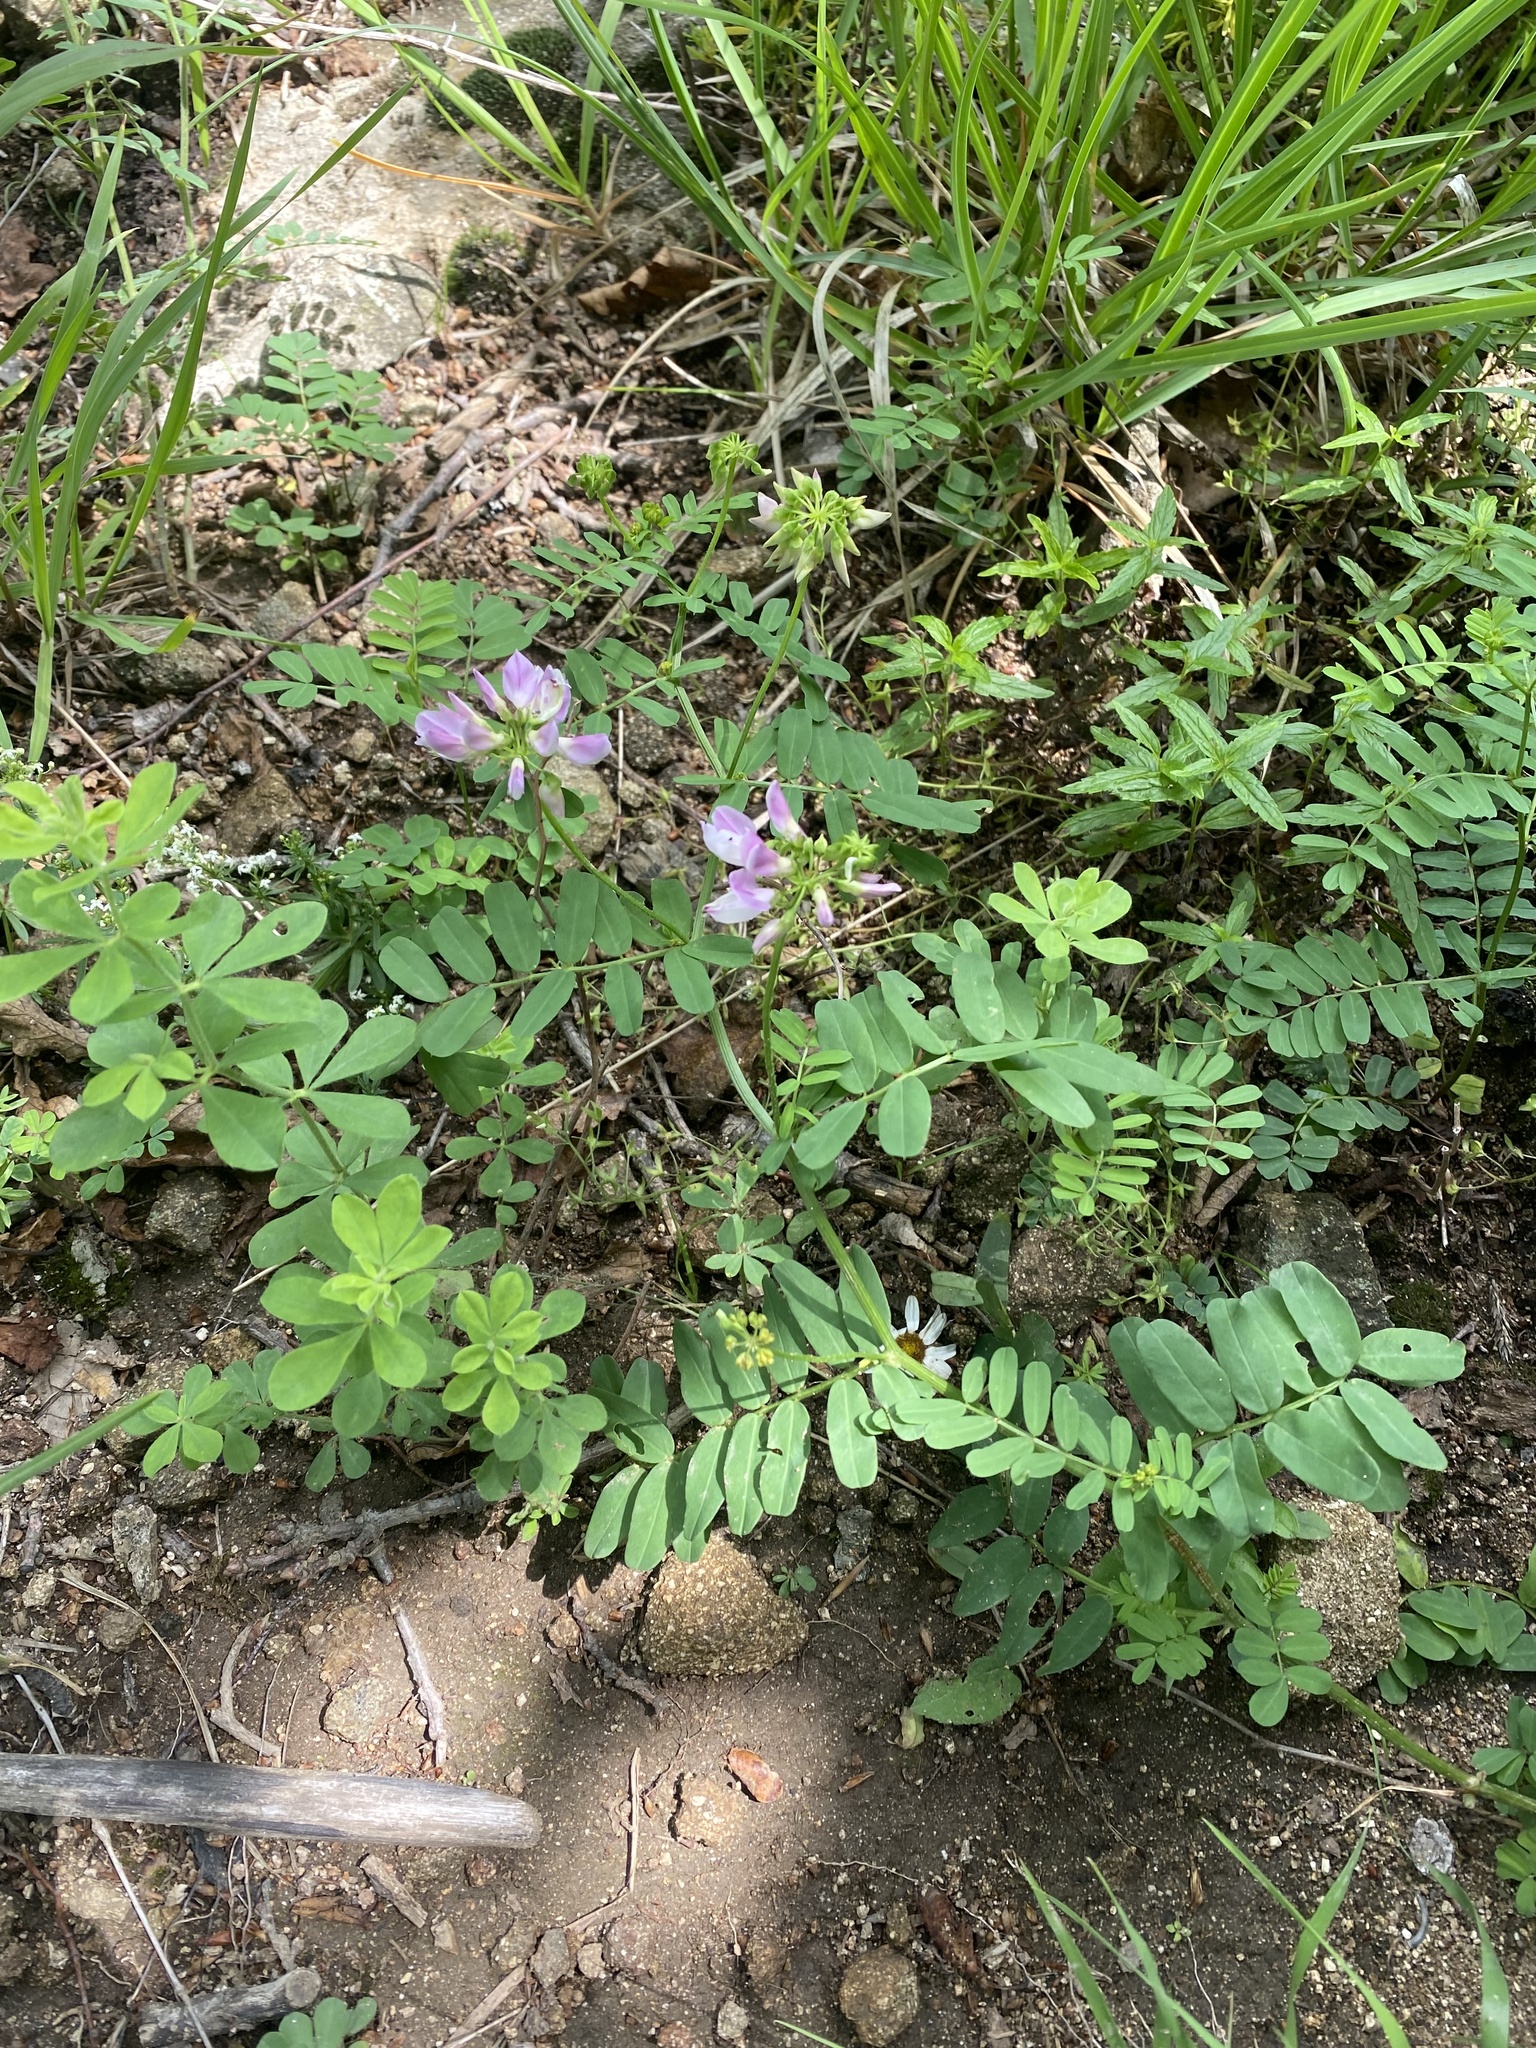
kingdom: Plantae
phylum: Tracheophyta
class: Magnoliopsida
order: Fabales
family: Fabaceae
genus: Coronilla
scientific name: Coronilla varia
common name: Crownvetch
